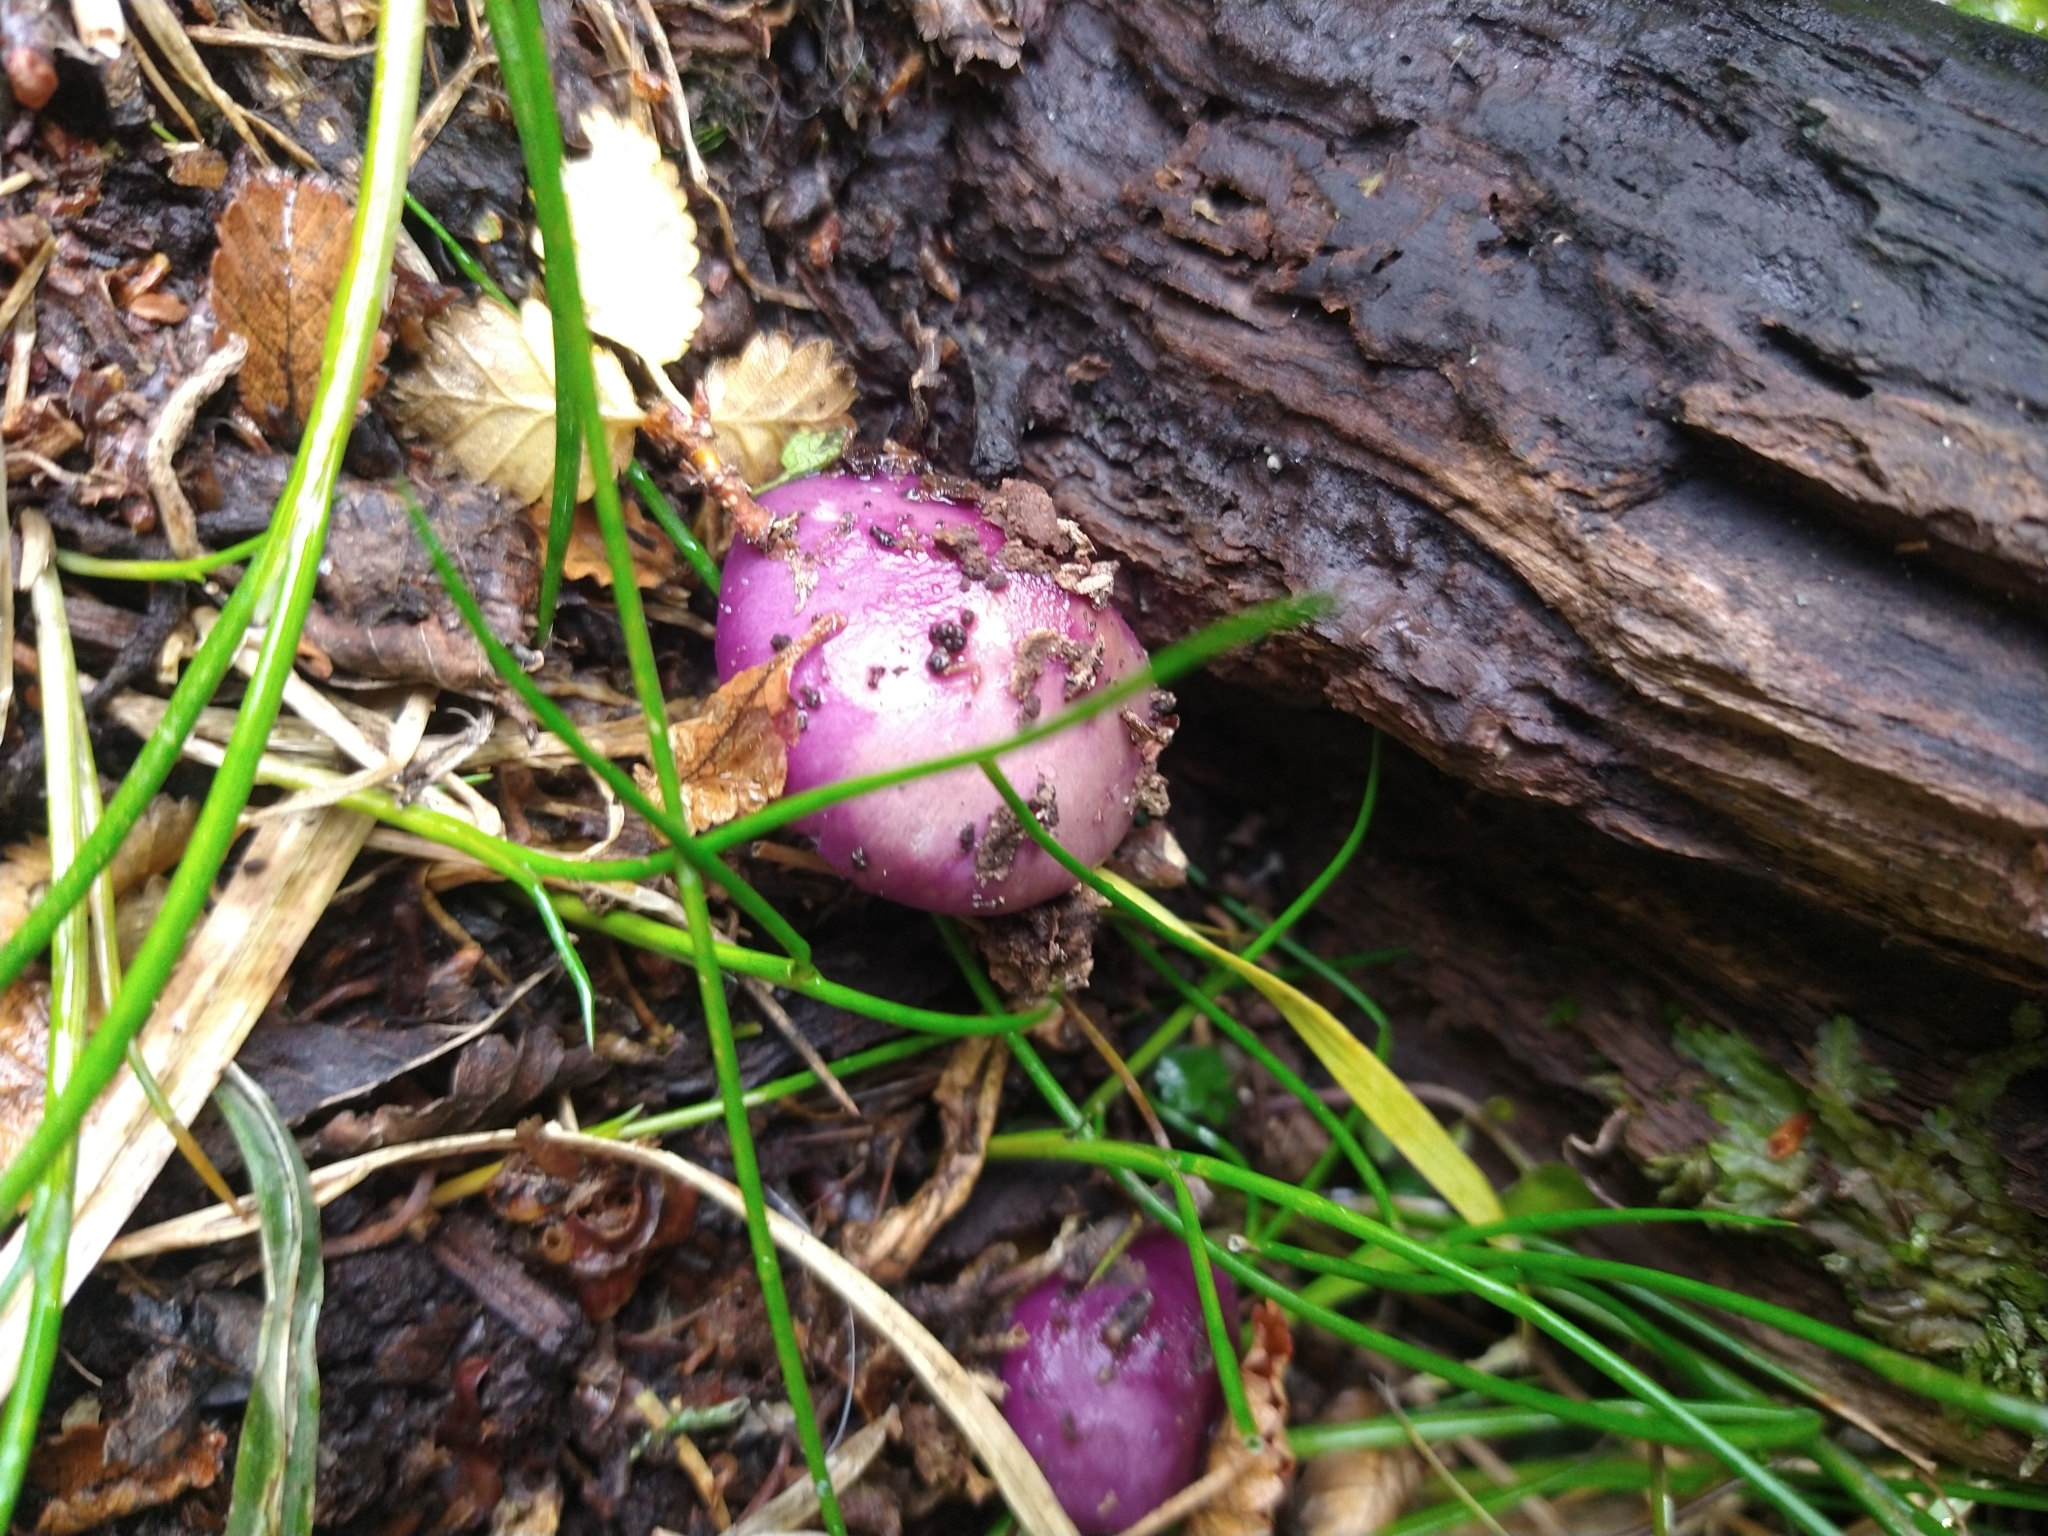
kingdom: Fungi
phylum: Basidiomycota
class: Agaricomycetes
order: Agaricales
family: Cortinariaceae
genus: Cortinarius
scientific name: Cortinarius magellanicus
